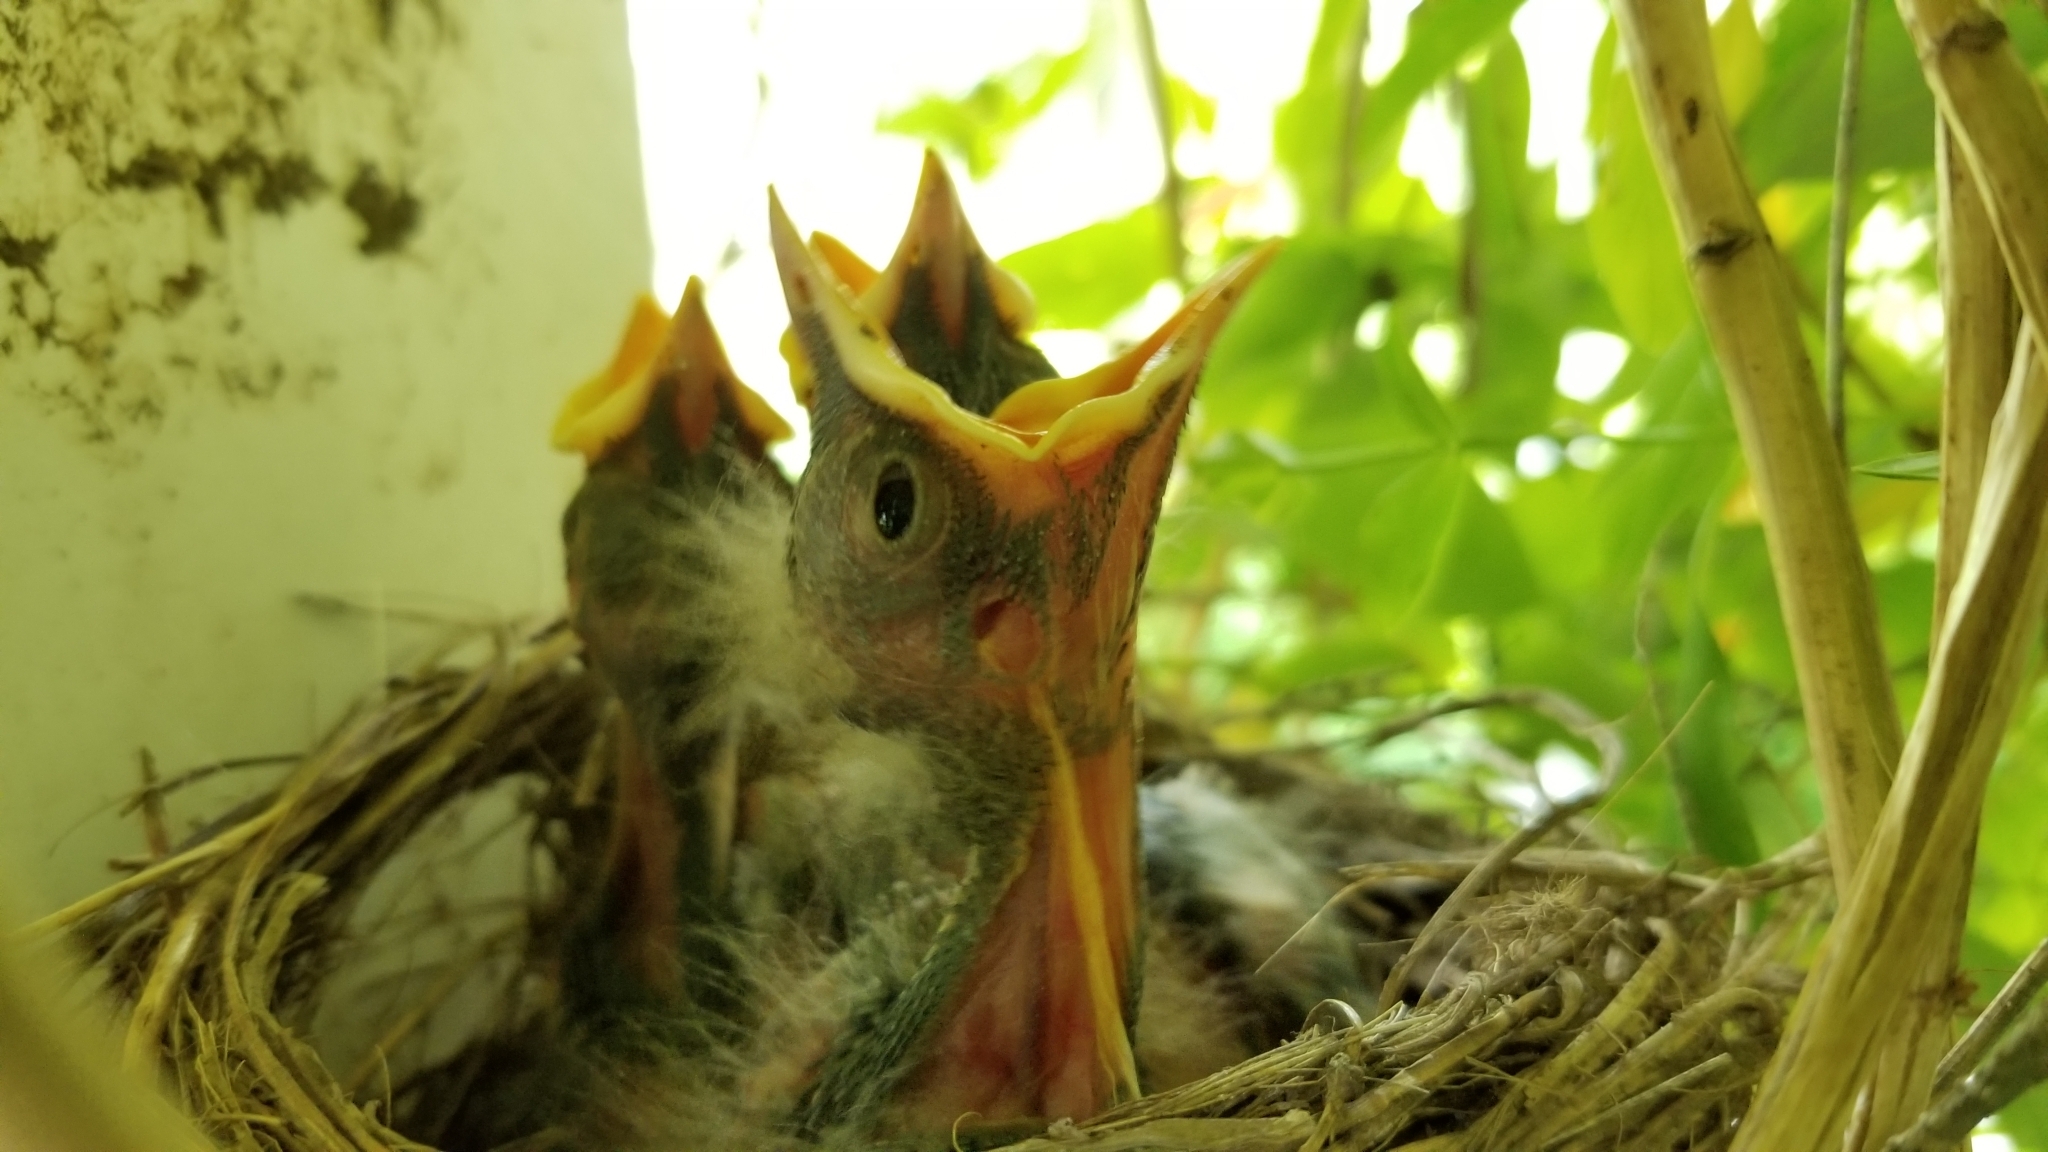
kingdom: Animalia
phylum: Chordata
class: Aves
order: Passeriformes
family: Turdidae
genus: Turdus
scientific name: Turdus migratorius
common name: American robin
